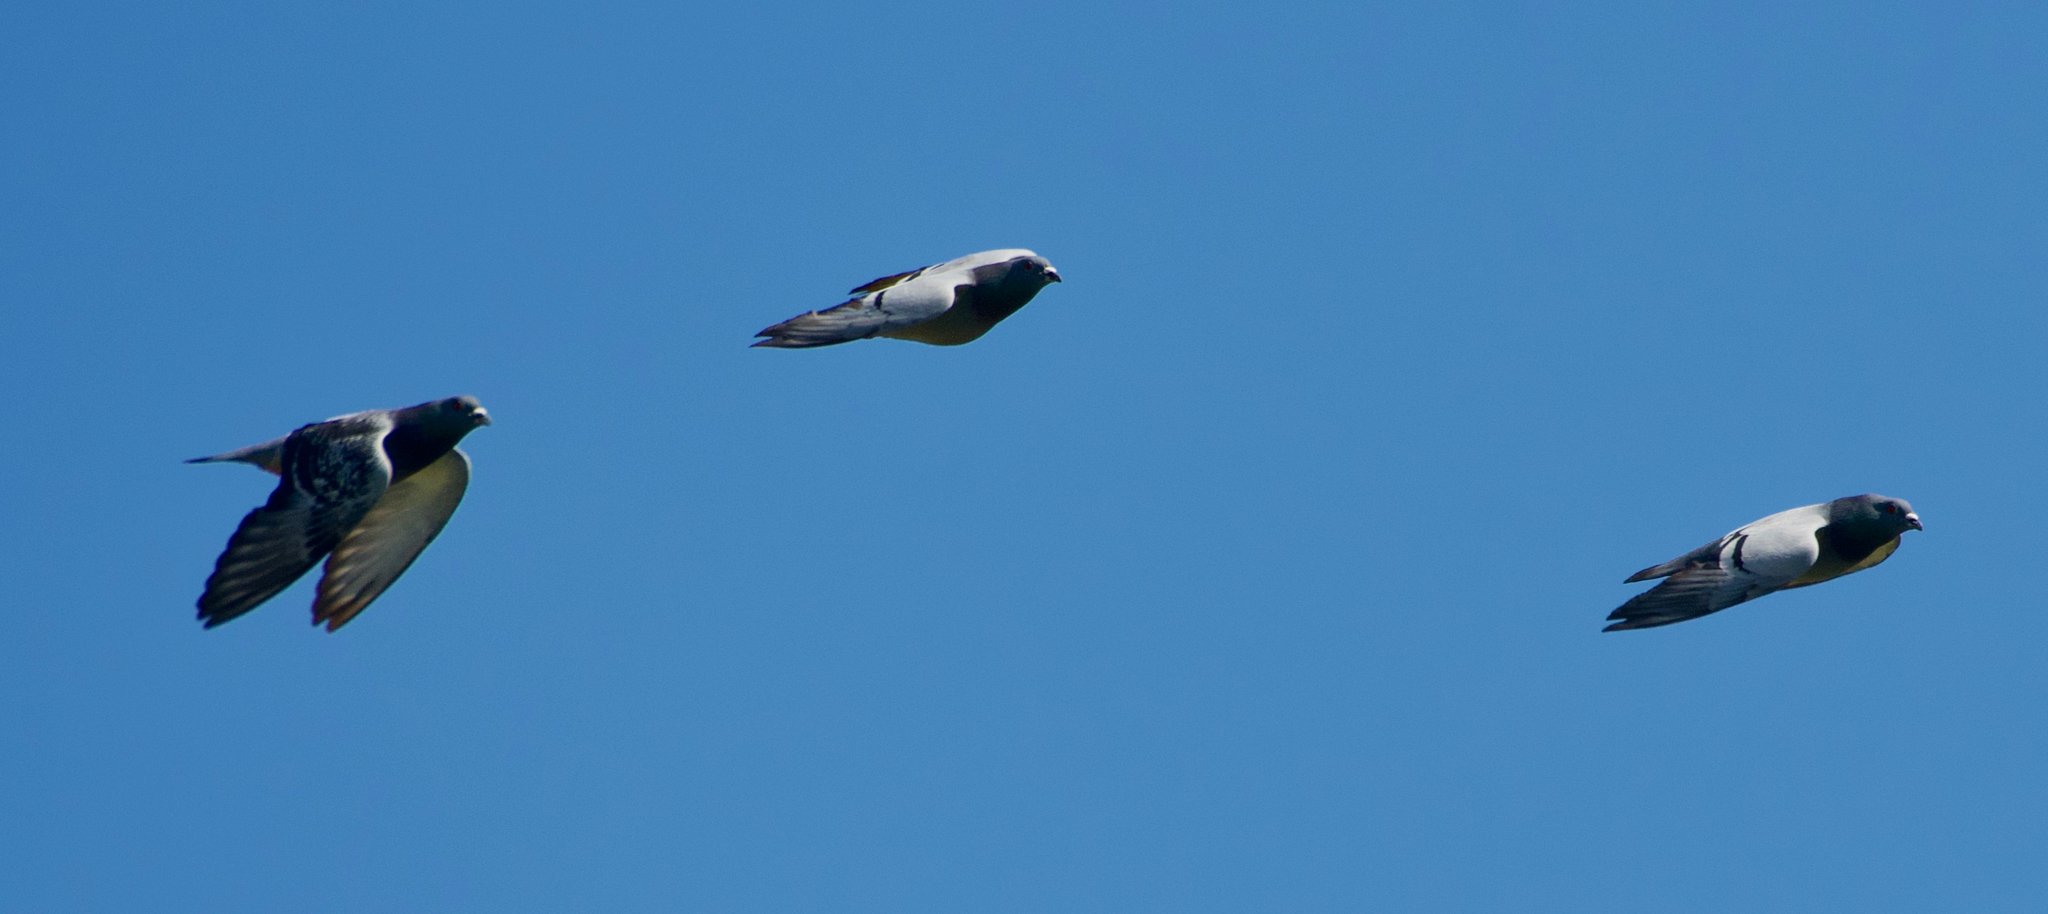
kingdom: Animalia
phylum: Chordata
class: Aves
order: Columbiformes
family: Columbidae
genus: Columba
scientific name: Columba livia
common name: Rock pigeon
